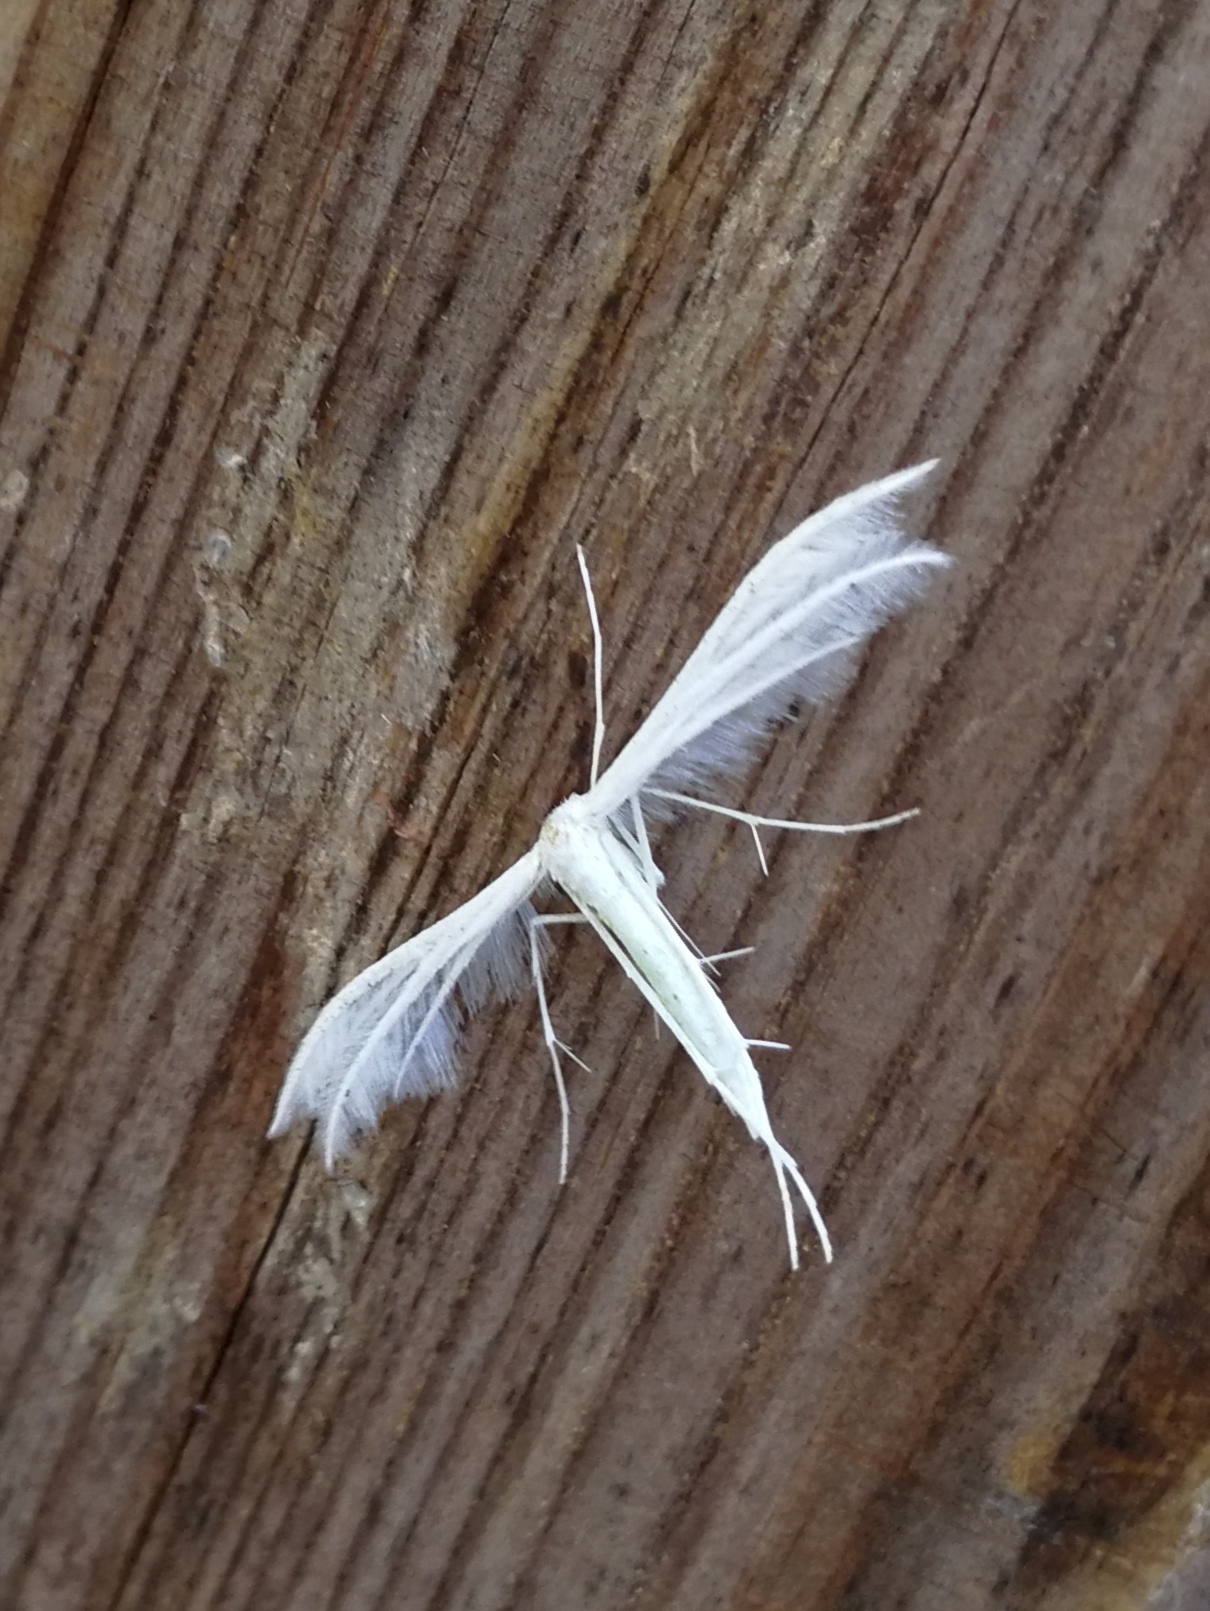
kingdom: Animalia
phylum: Arthropoda
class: Insecta
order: Lepidoptera
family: Pterophoridae
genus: Pterophorus
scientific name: Pterophorus pentadactyla
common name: White plume moth
